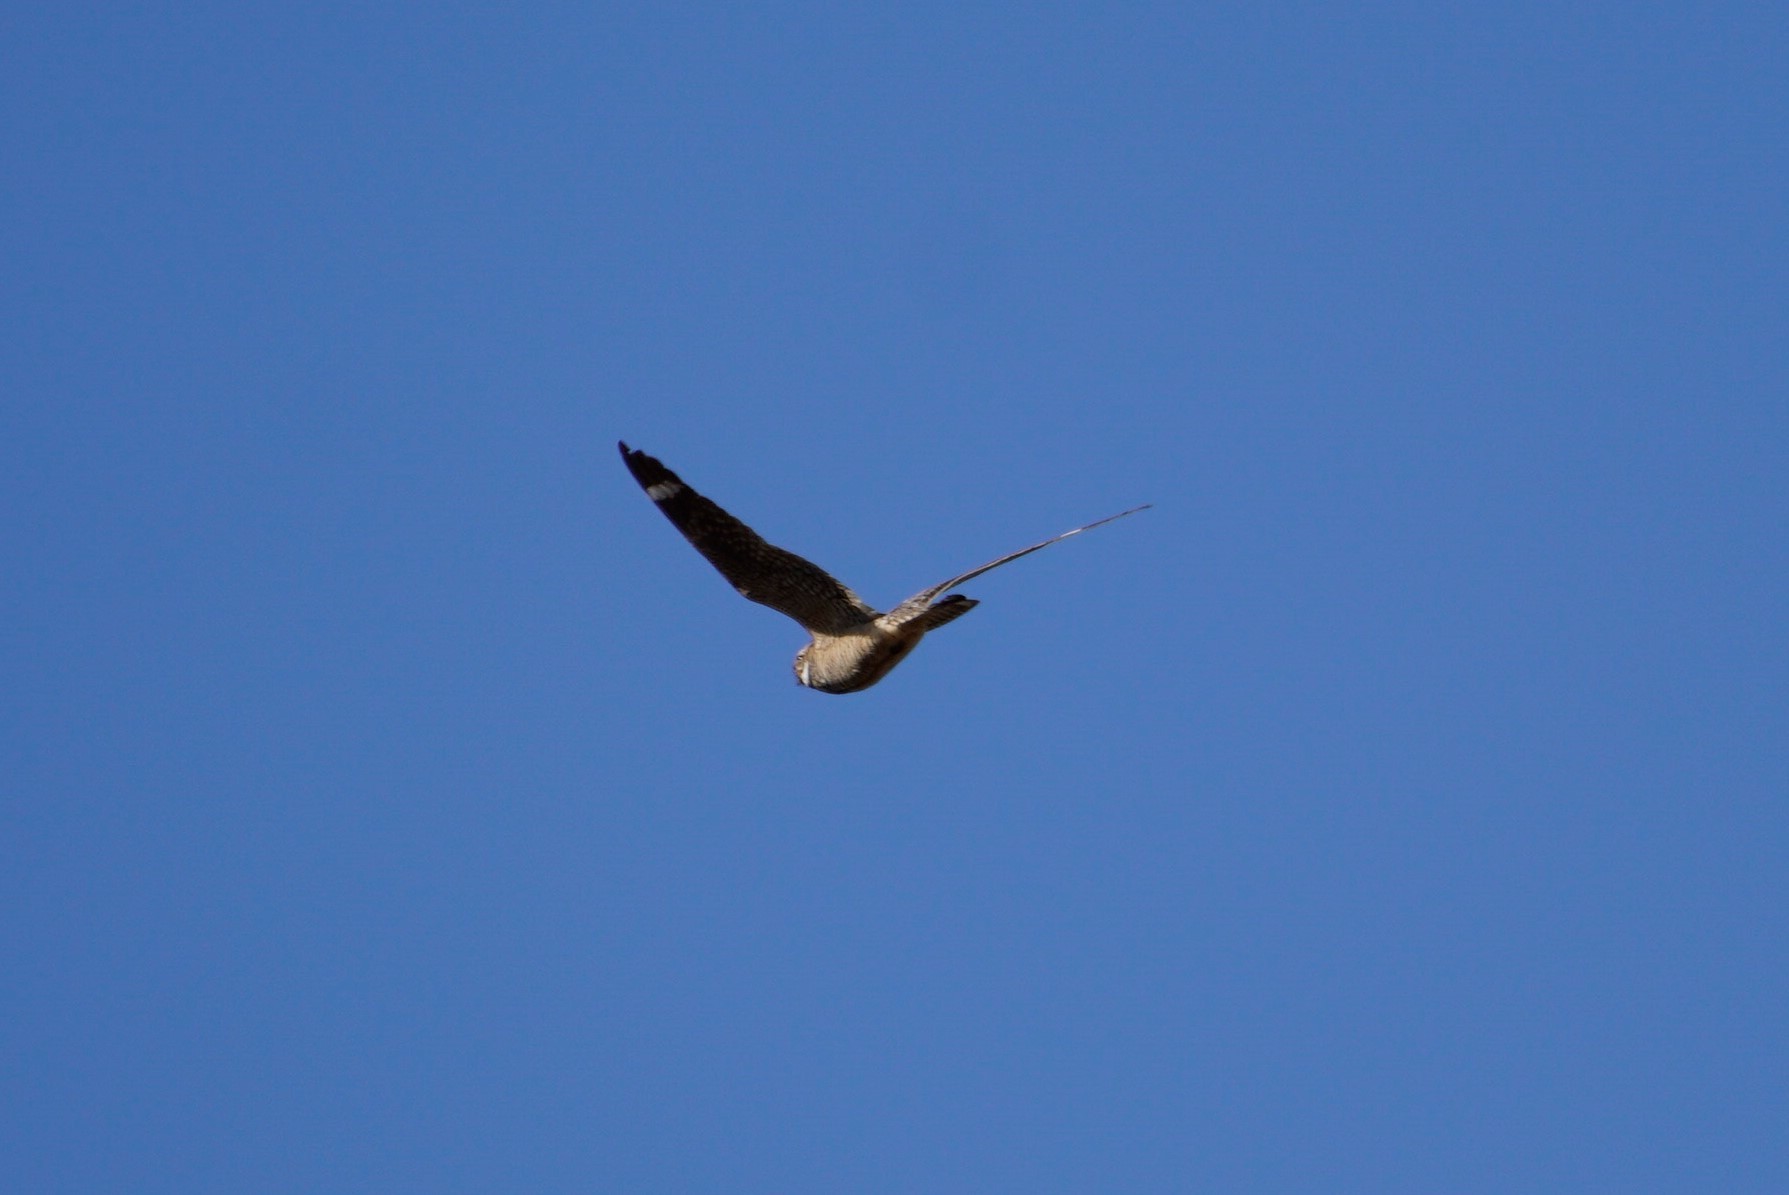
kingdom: Animalia
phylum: Chordata
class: Aves
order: Caprimulgiformes
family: Caprimulgidae
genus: Chordeiles
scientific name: Chordeiles acutipennis
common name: Lesser nighthawk
